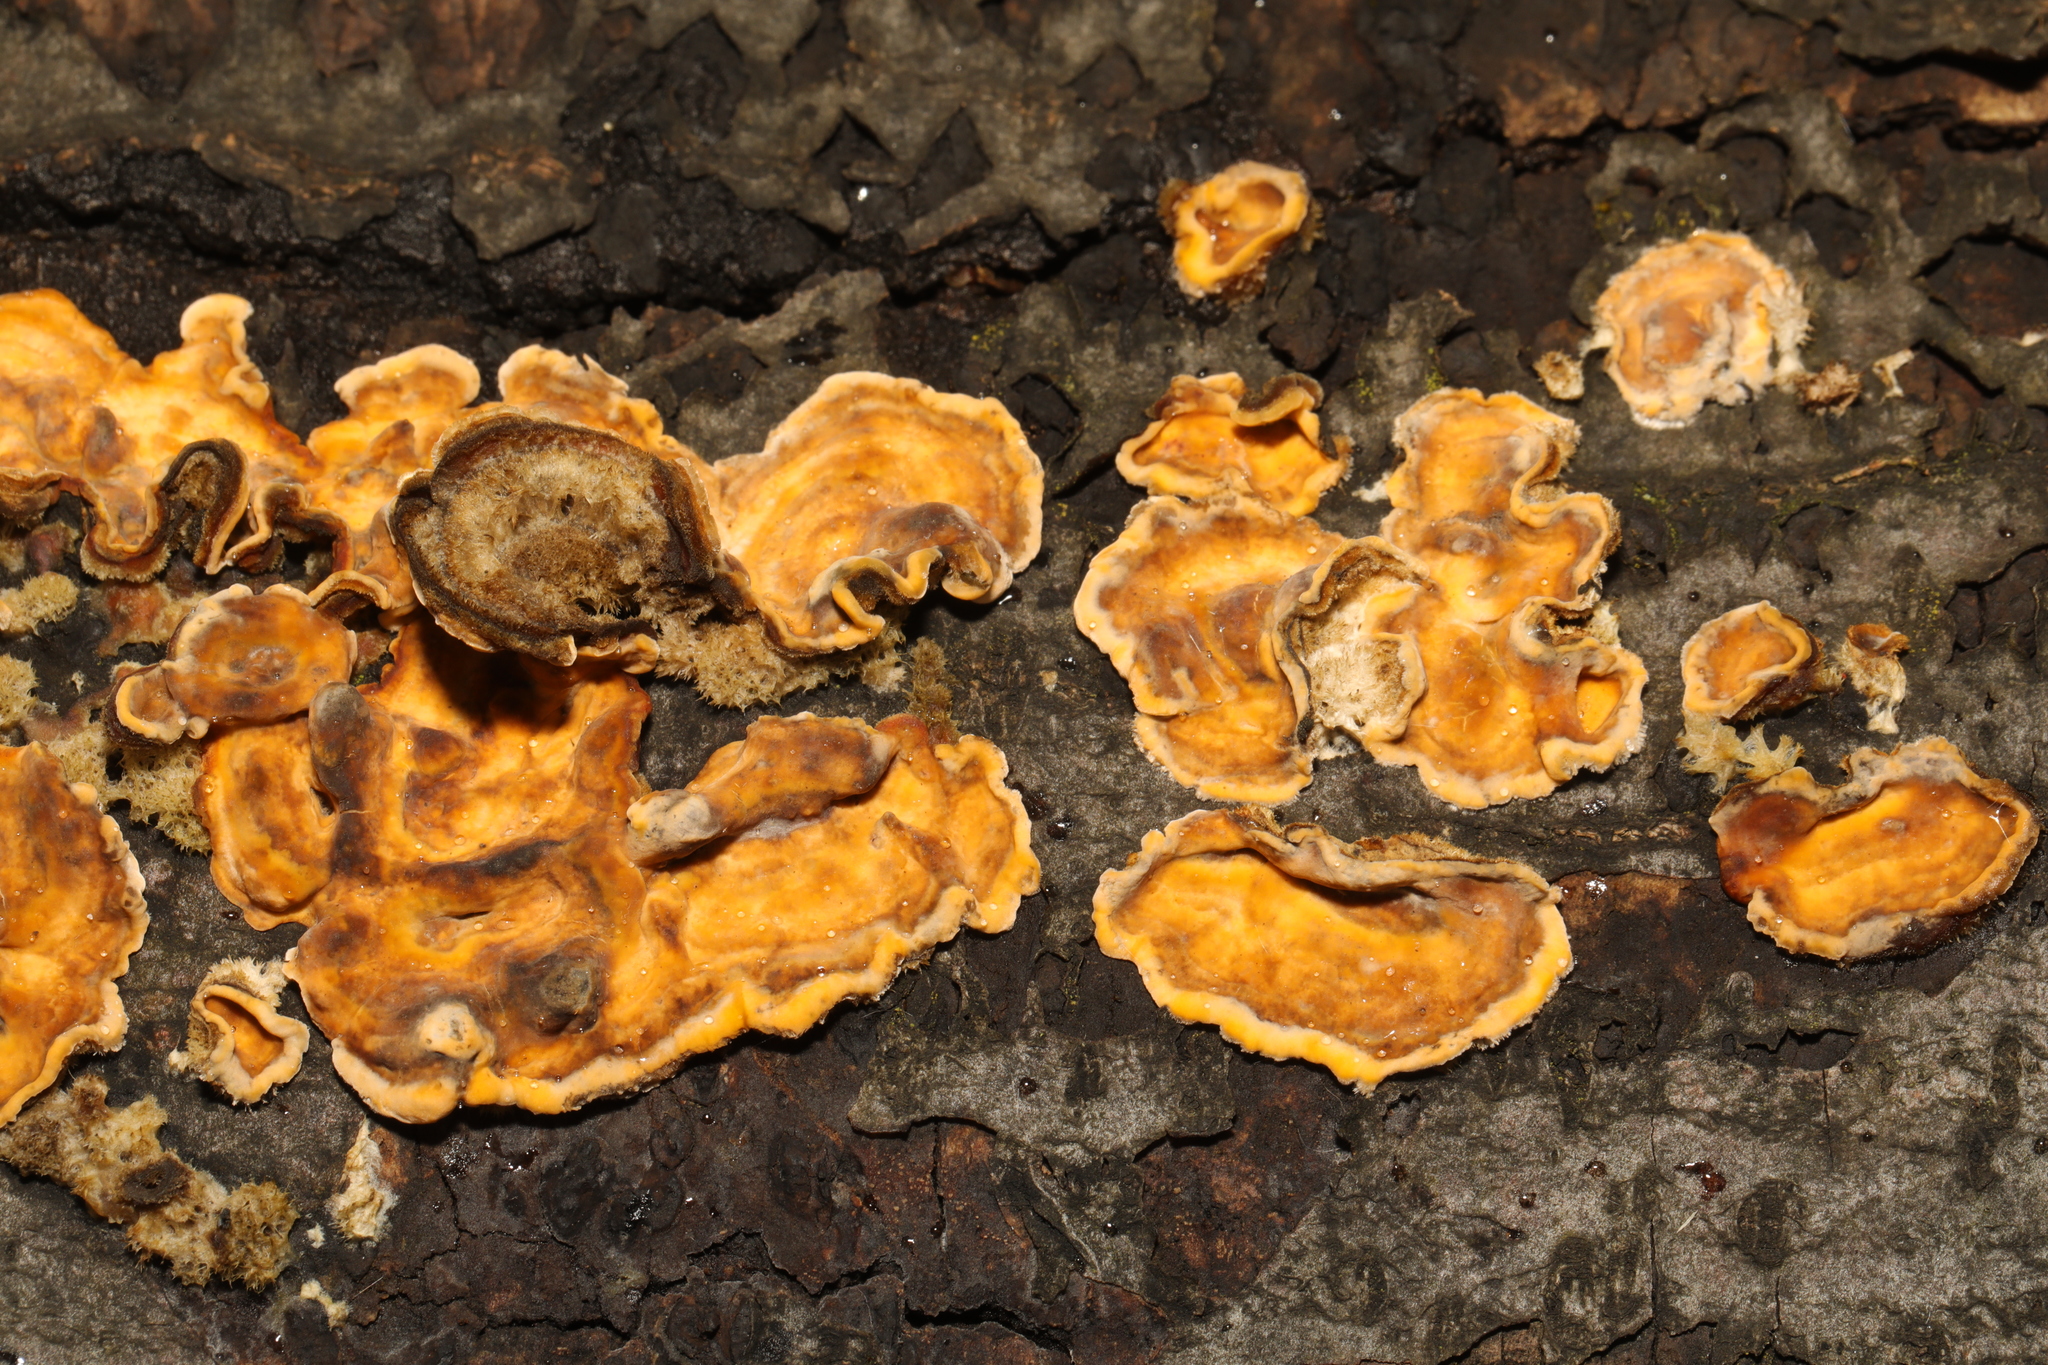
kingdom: Fungi
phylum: Basidiomycota
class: Agaricomycetes
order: Russulales
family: Stereaceae
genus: Stereum
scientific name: Stereum hirsutum
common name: Hairy curtain crust
